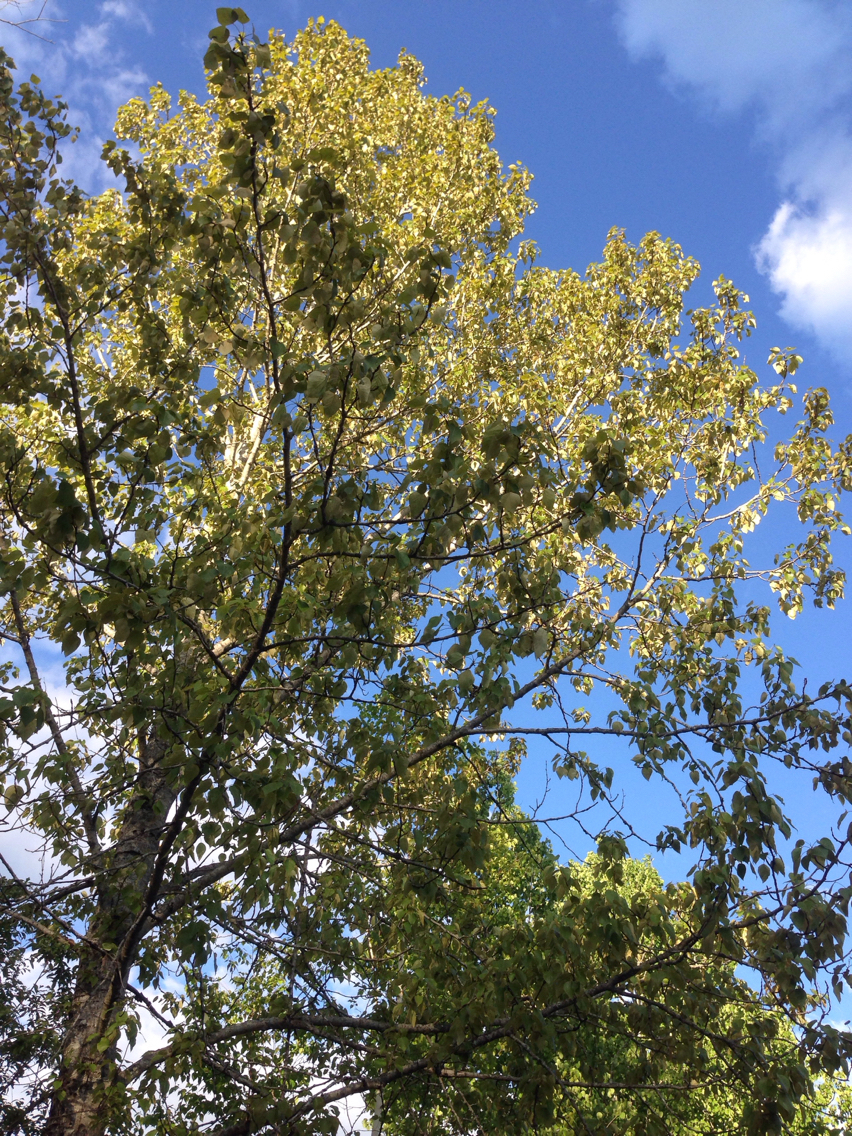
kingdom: Plantae
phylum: Tracheophyta
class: Magnoliopsida
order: Malpighiales
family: Salicaceae
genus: Populus
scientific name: Populus balsamifera
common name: Balsam poplar
